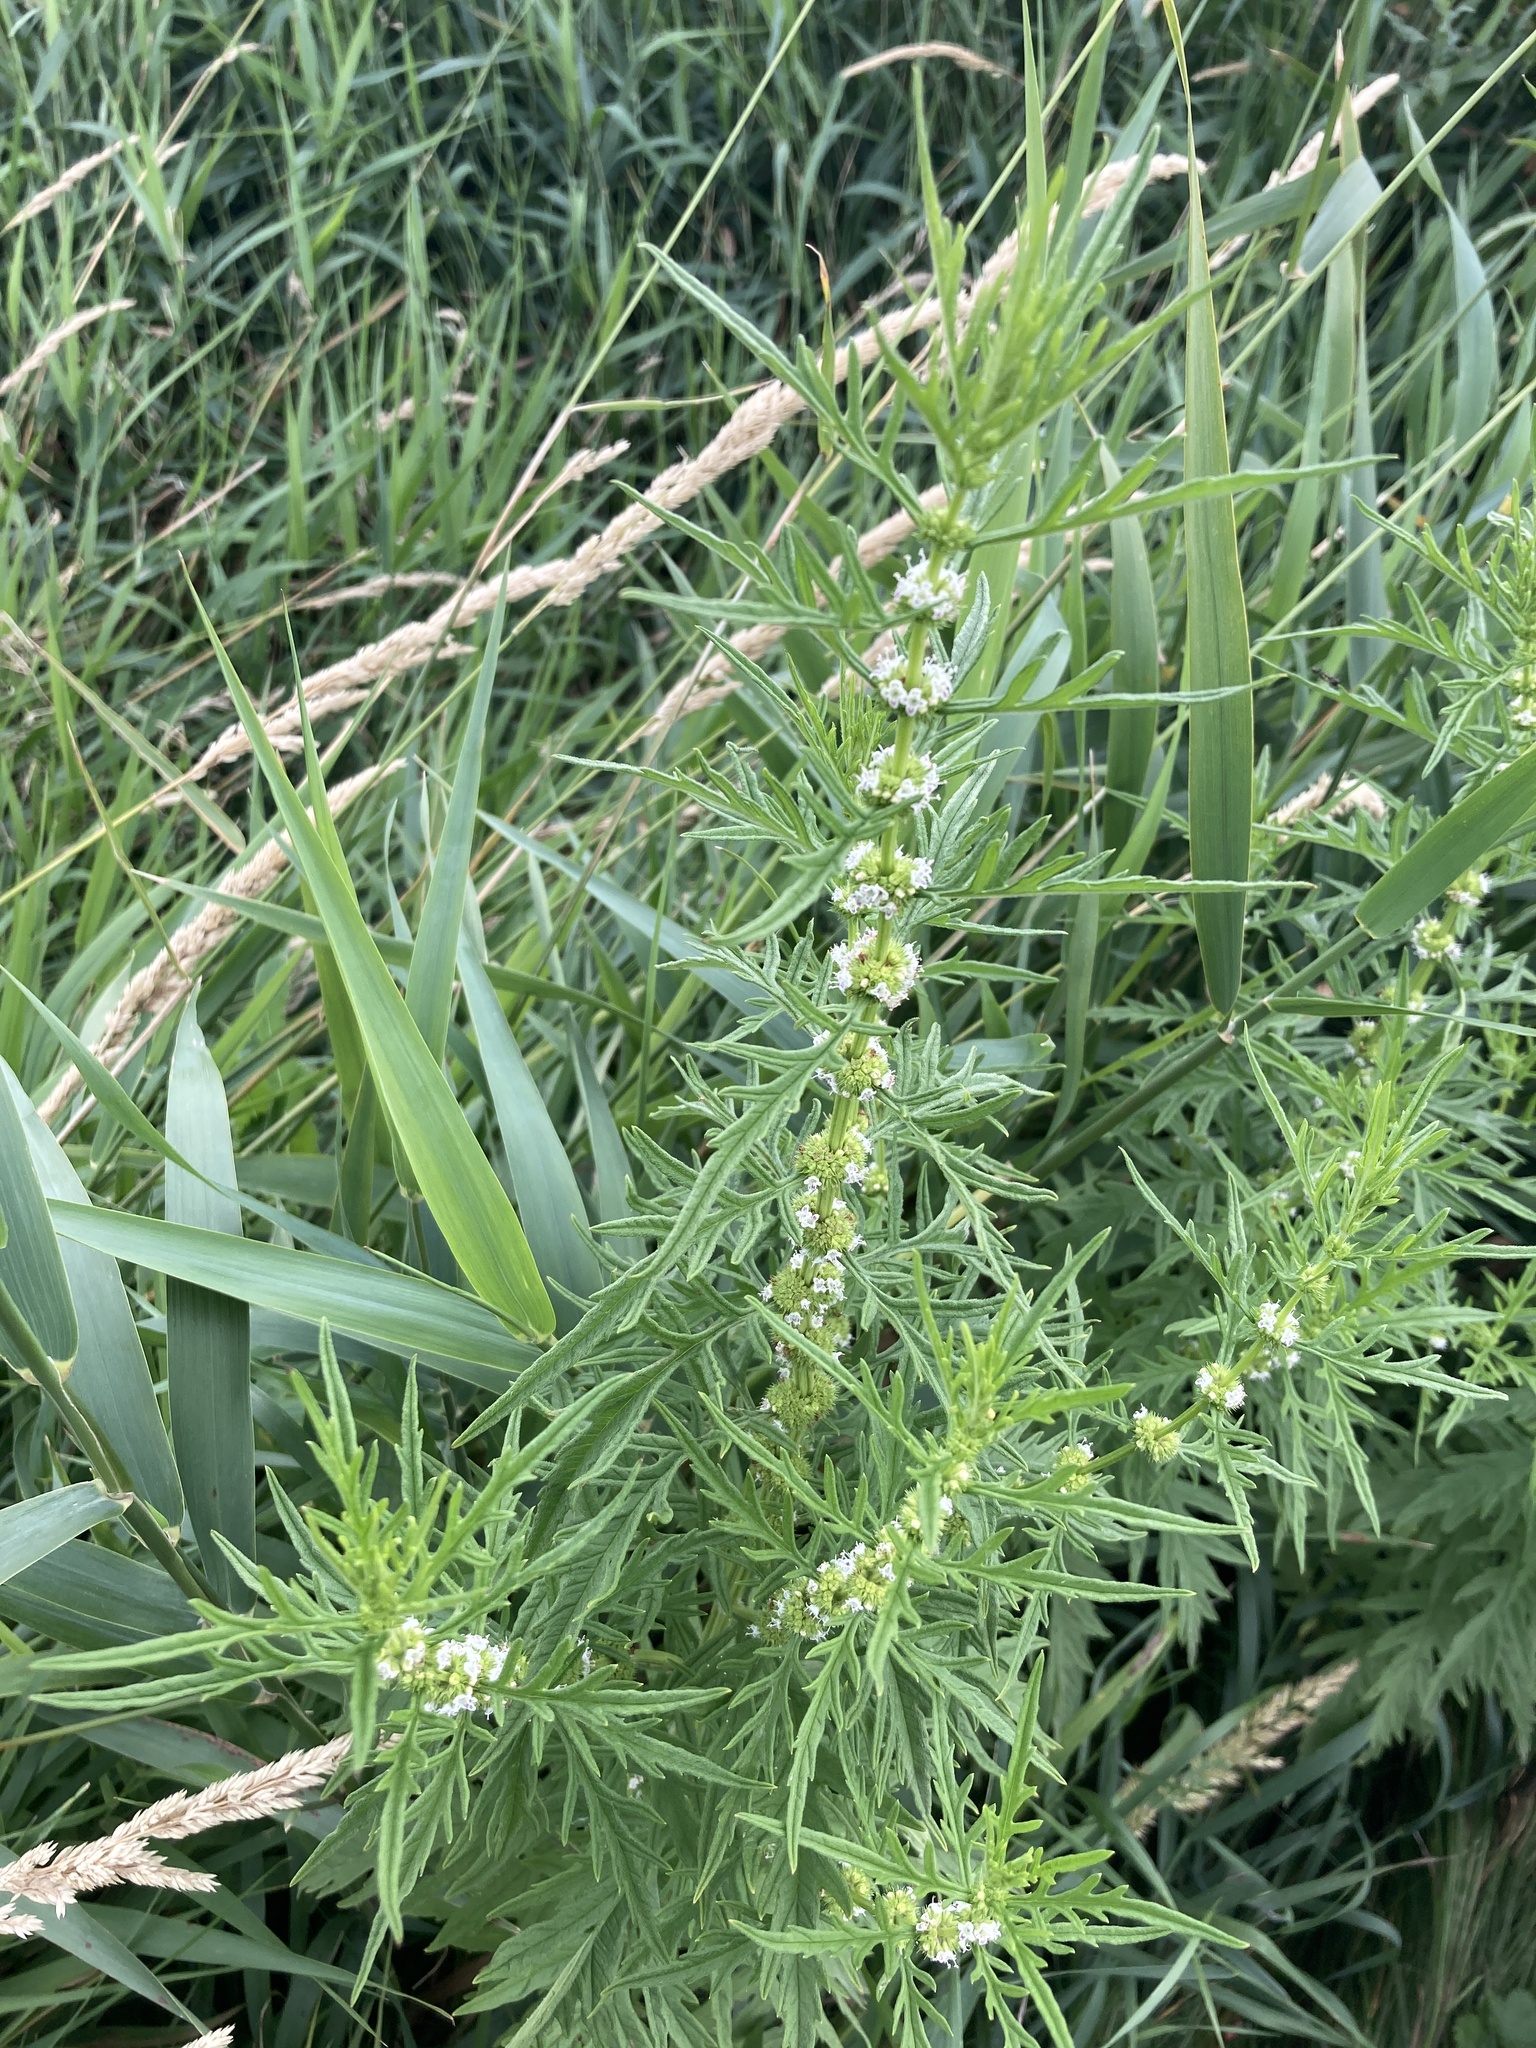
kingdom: Plantae
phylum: Tracheophyta
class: Magnoliopsida
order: Lamiales
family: Lamiaceae
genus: Lycopus
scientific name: Lycopus exaltatus
